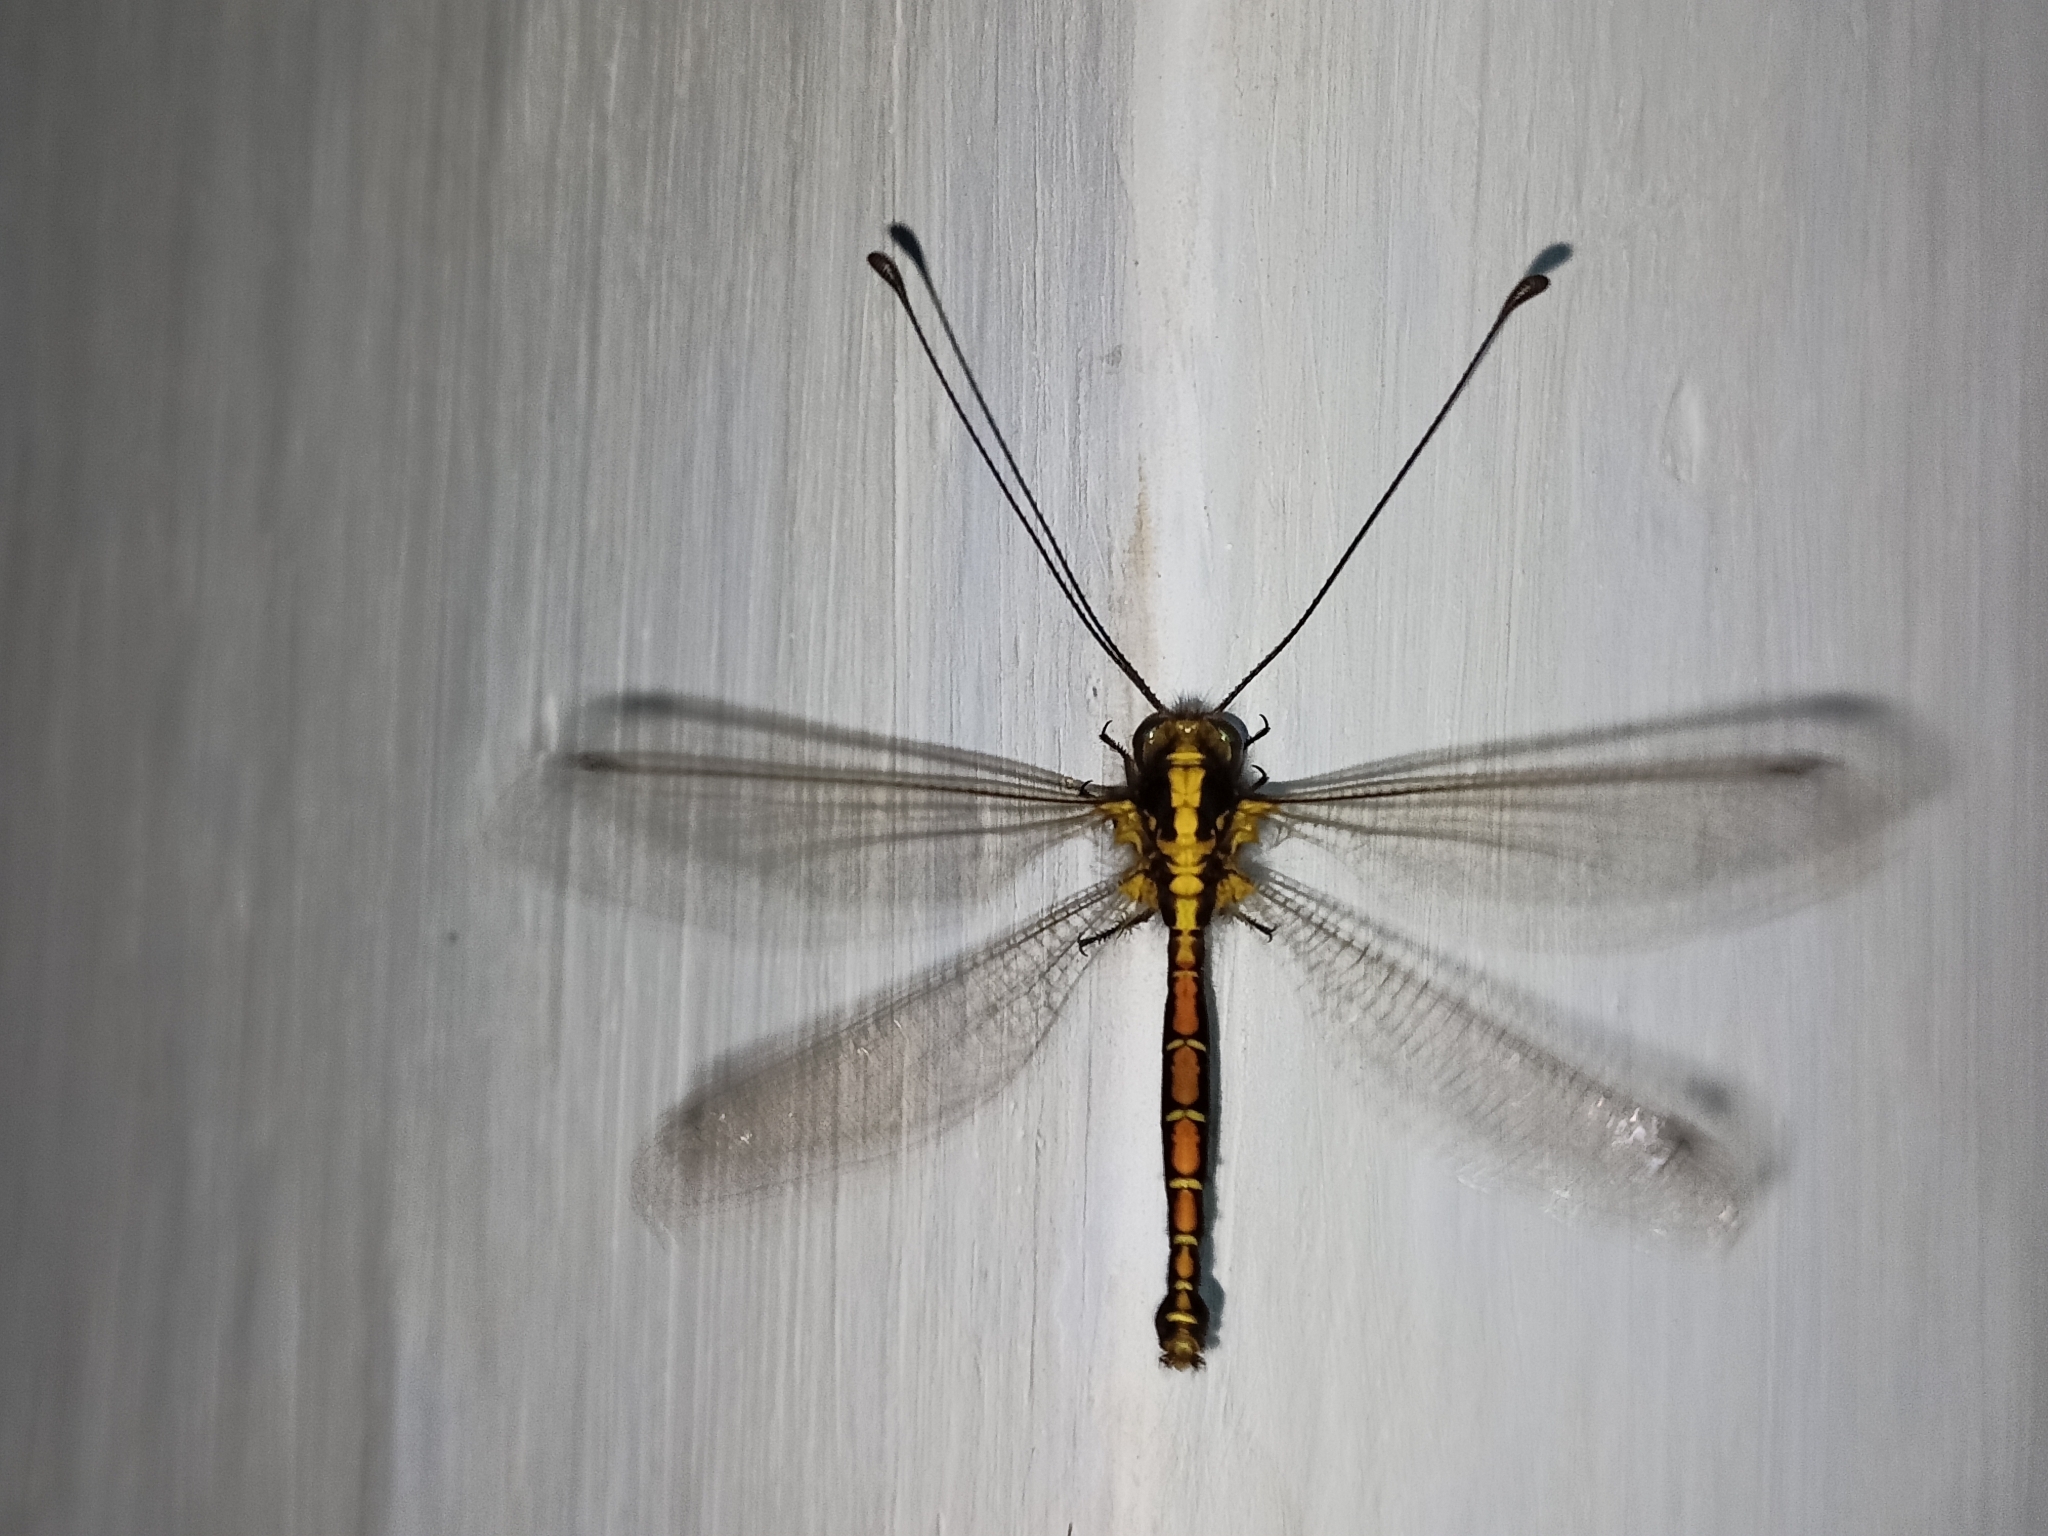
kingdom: Animalia
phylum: Arthropoda
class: Insecta
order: Neuroptera
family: Ascalaphidae
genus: Ascalohybris
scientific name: Ascalohybris subjacens
